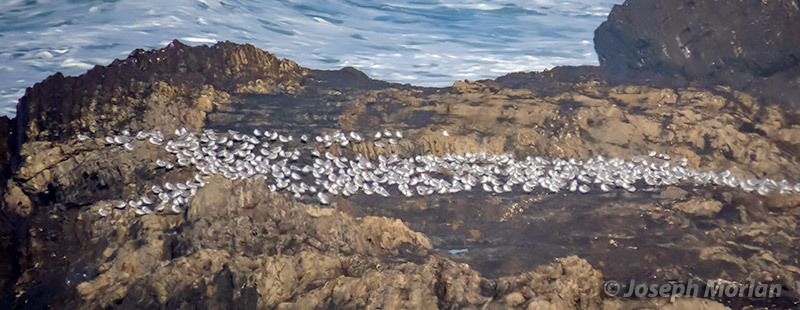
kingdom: Animalia
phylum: Chordata
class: Aves
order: Charadriiformes
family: Scolopacidae
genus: Calidris
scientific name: Calidris alba
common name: Sanderling
